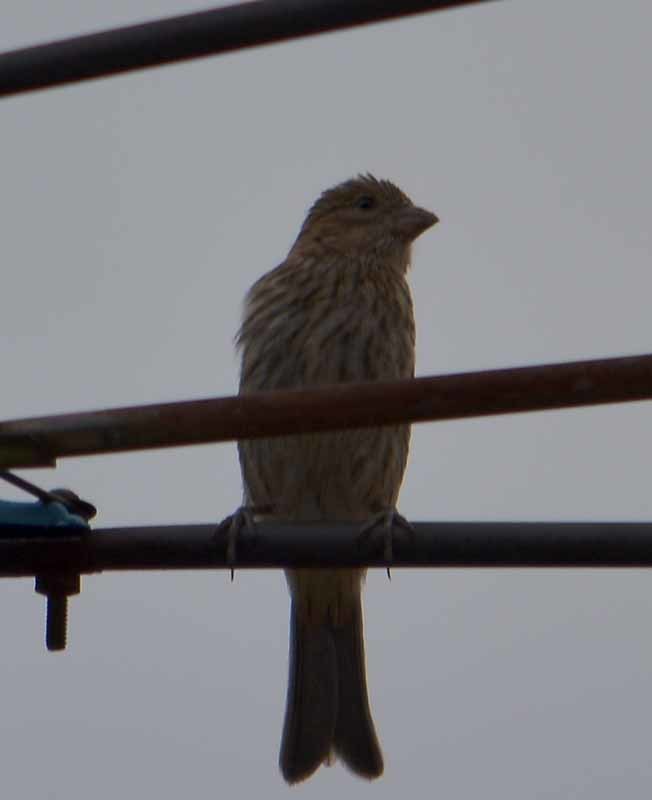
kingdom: Animalia
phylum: Chordata
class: Aves
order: Passeriformes
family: Fringillidae
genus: Haemorhous
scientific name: Haemorhous mexicanus
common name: House finch
